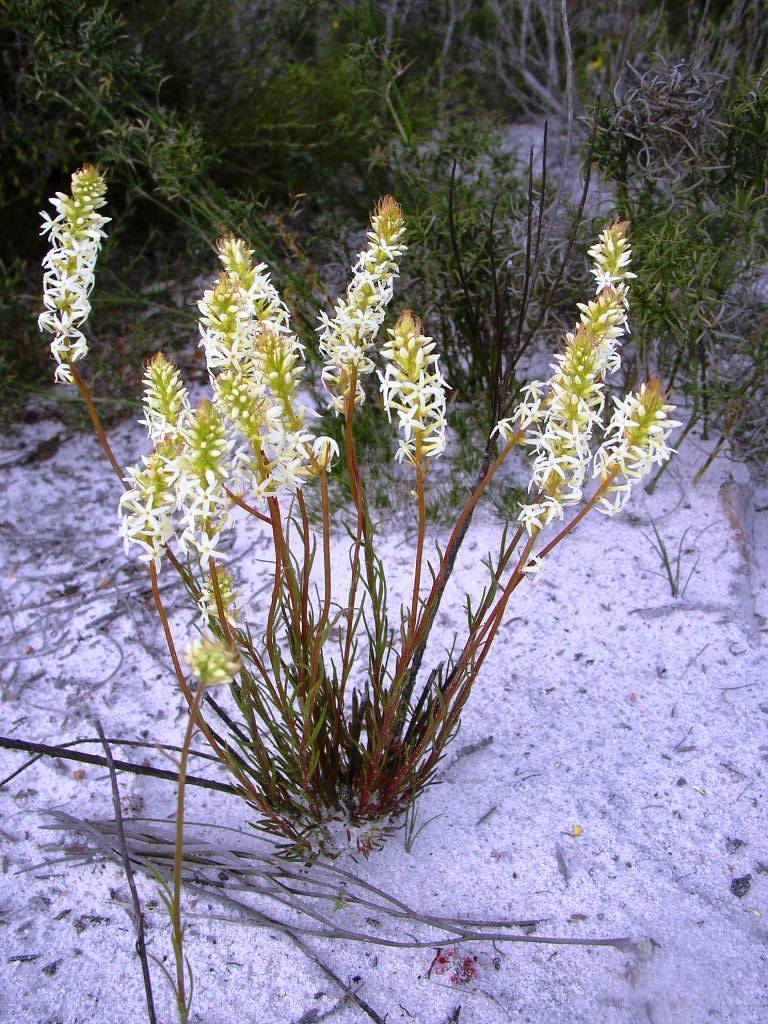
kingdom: Plantae
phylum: Tracheophyta
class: Magnoliopsida
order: Celastrales
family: Celastraceae
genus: Stackhousia
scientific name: Stackhousia monogyna
